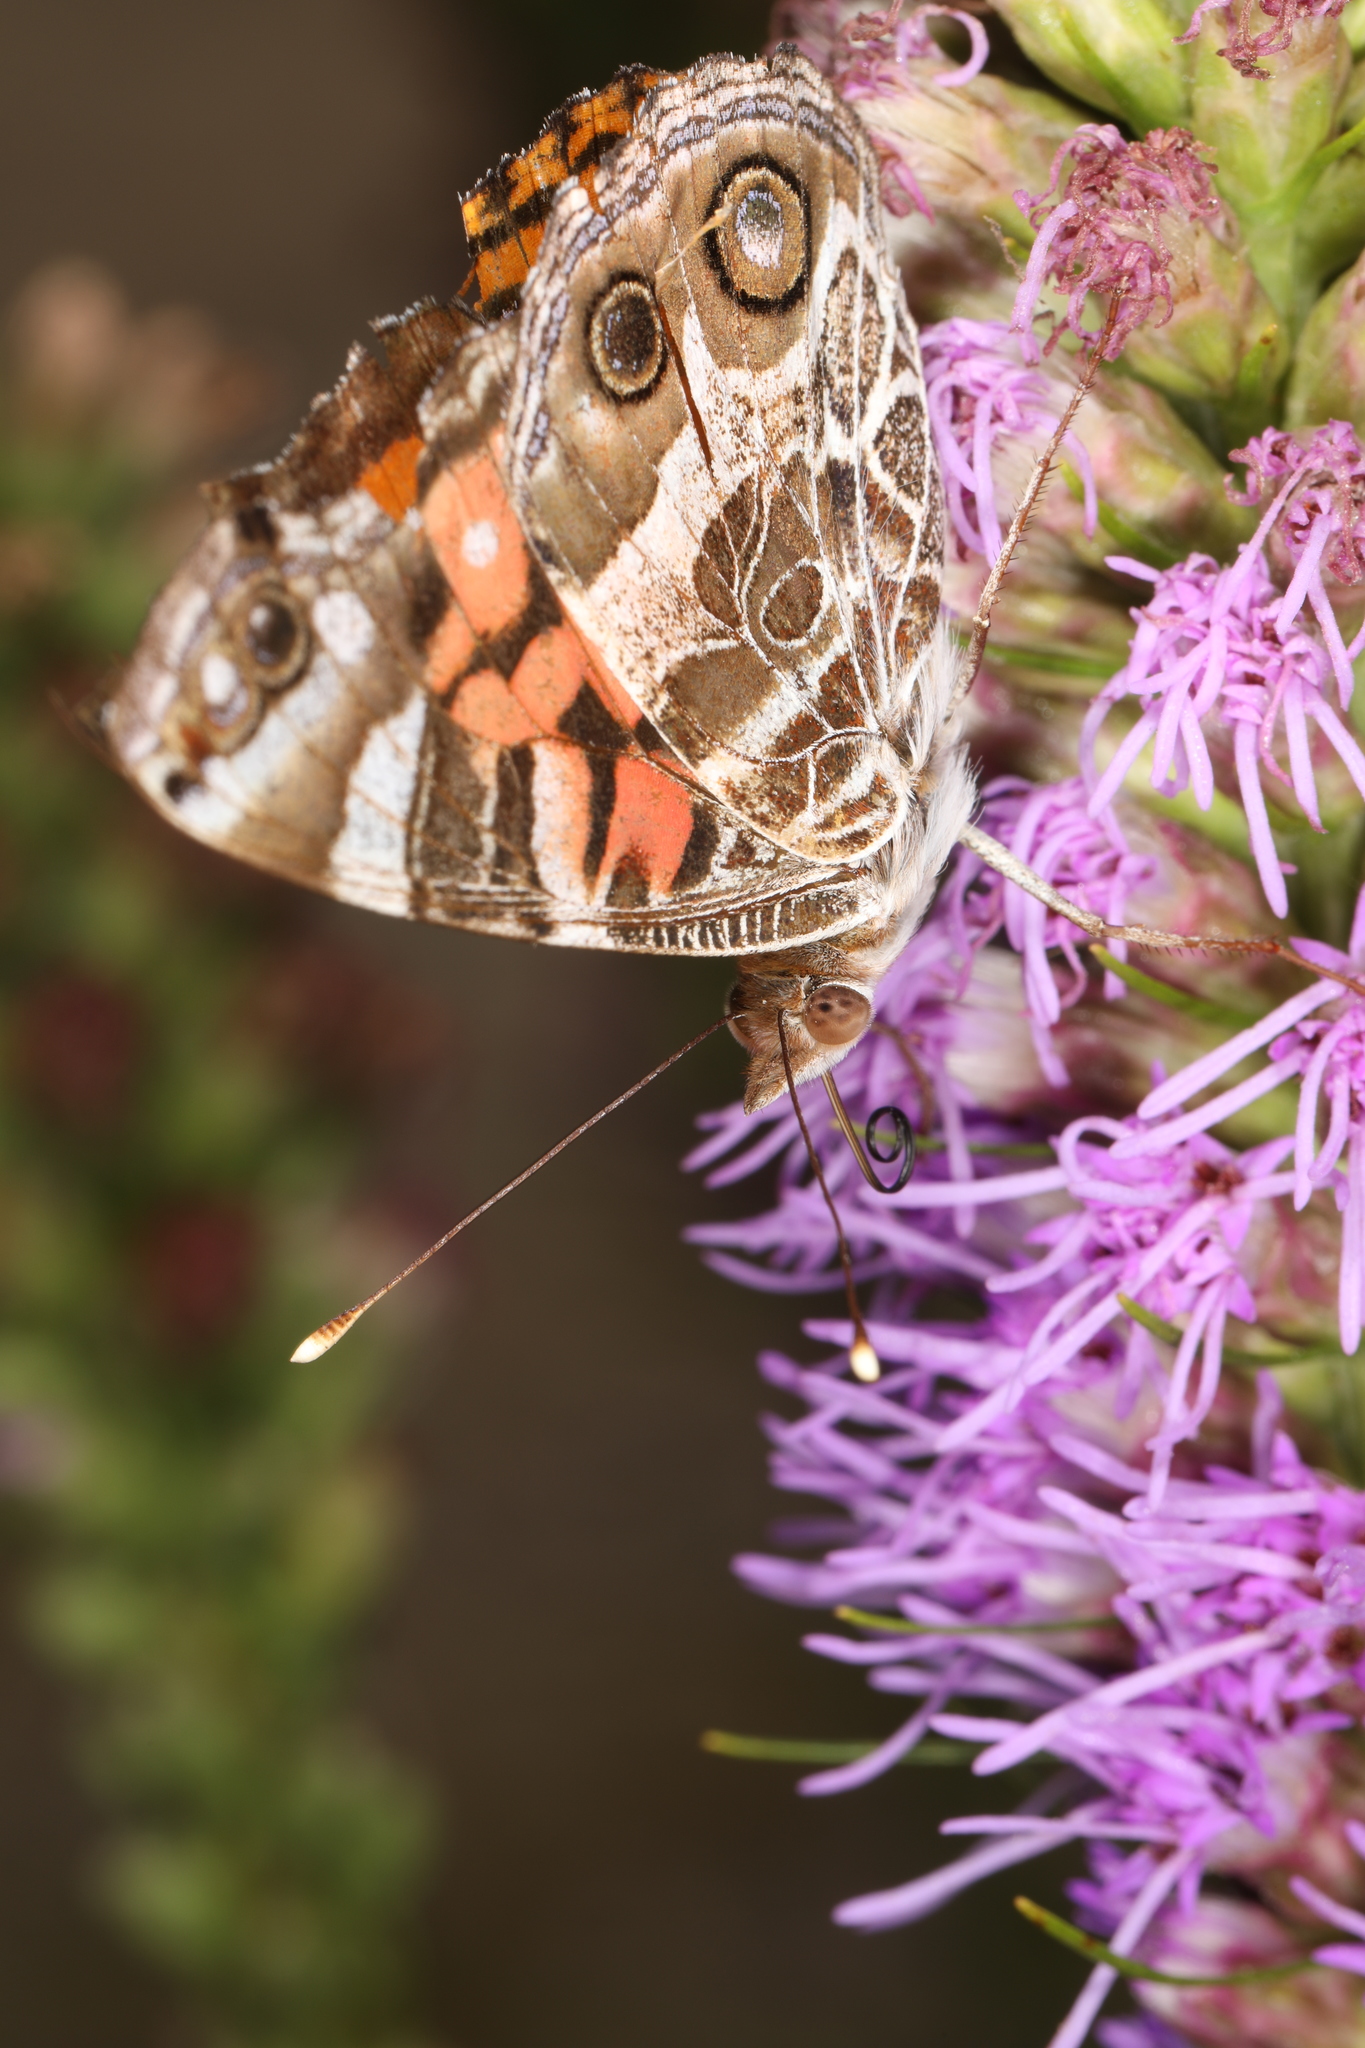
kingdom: Animalia
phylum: Arthropoda
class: Insecta
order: Lepidoptera
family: Nymphalidae
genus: Vanessa
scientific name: Vanessa virginiensis
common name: American lady
